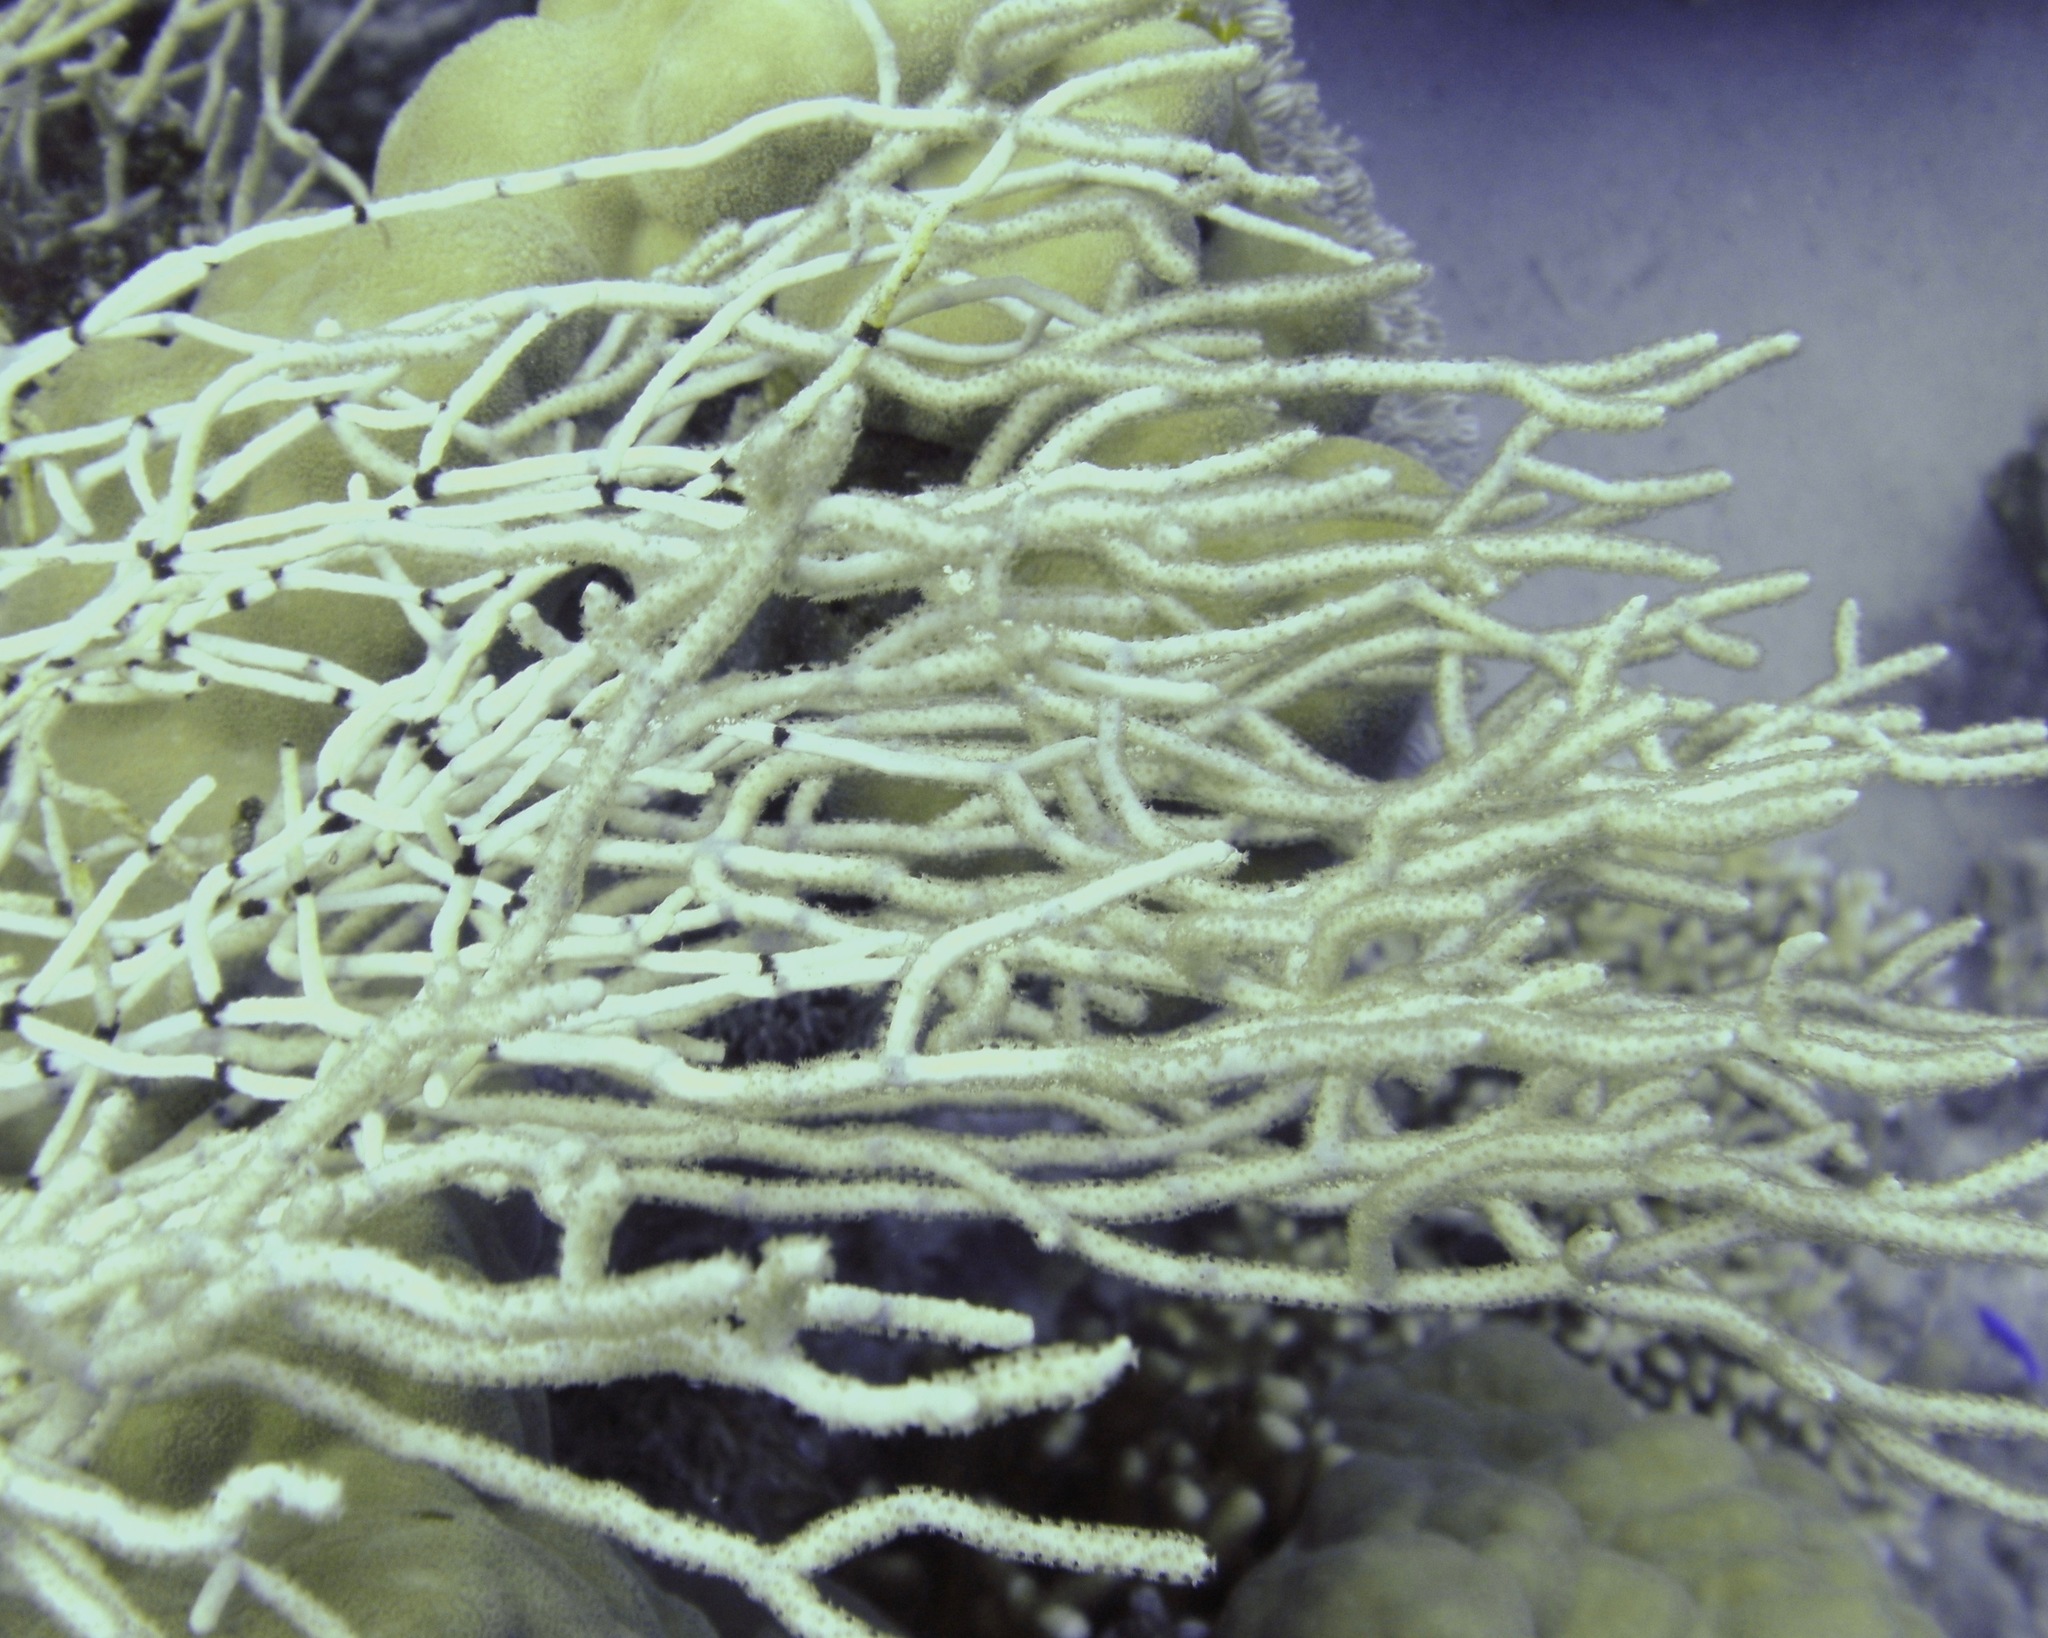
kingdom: Animalia
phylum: Cnidaria
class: Anthozoa
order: Malacalcyonacea
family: Melithaeidae
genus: Melithaea
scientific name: Melithaea rubrinodis
